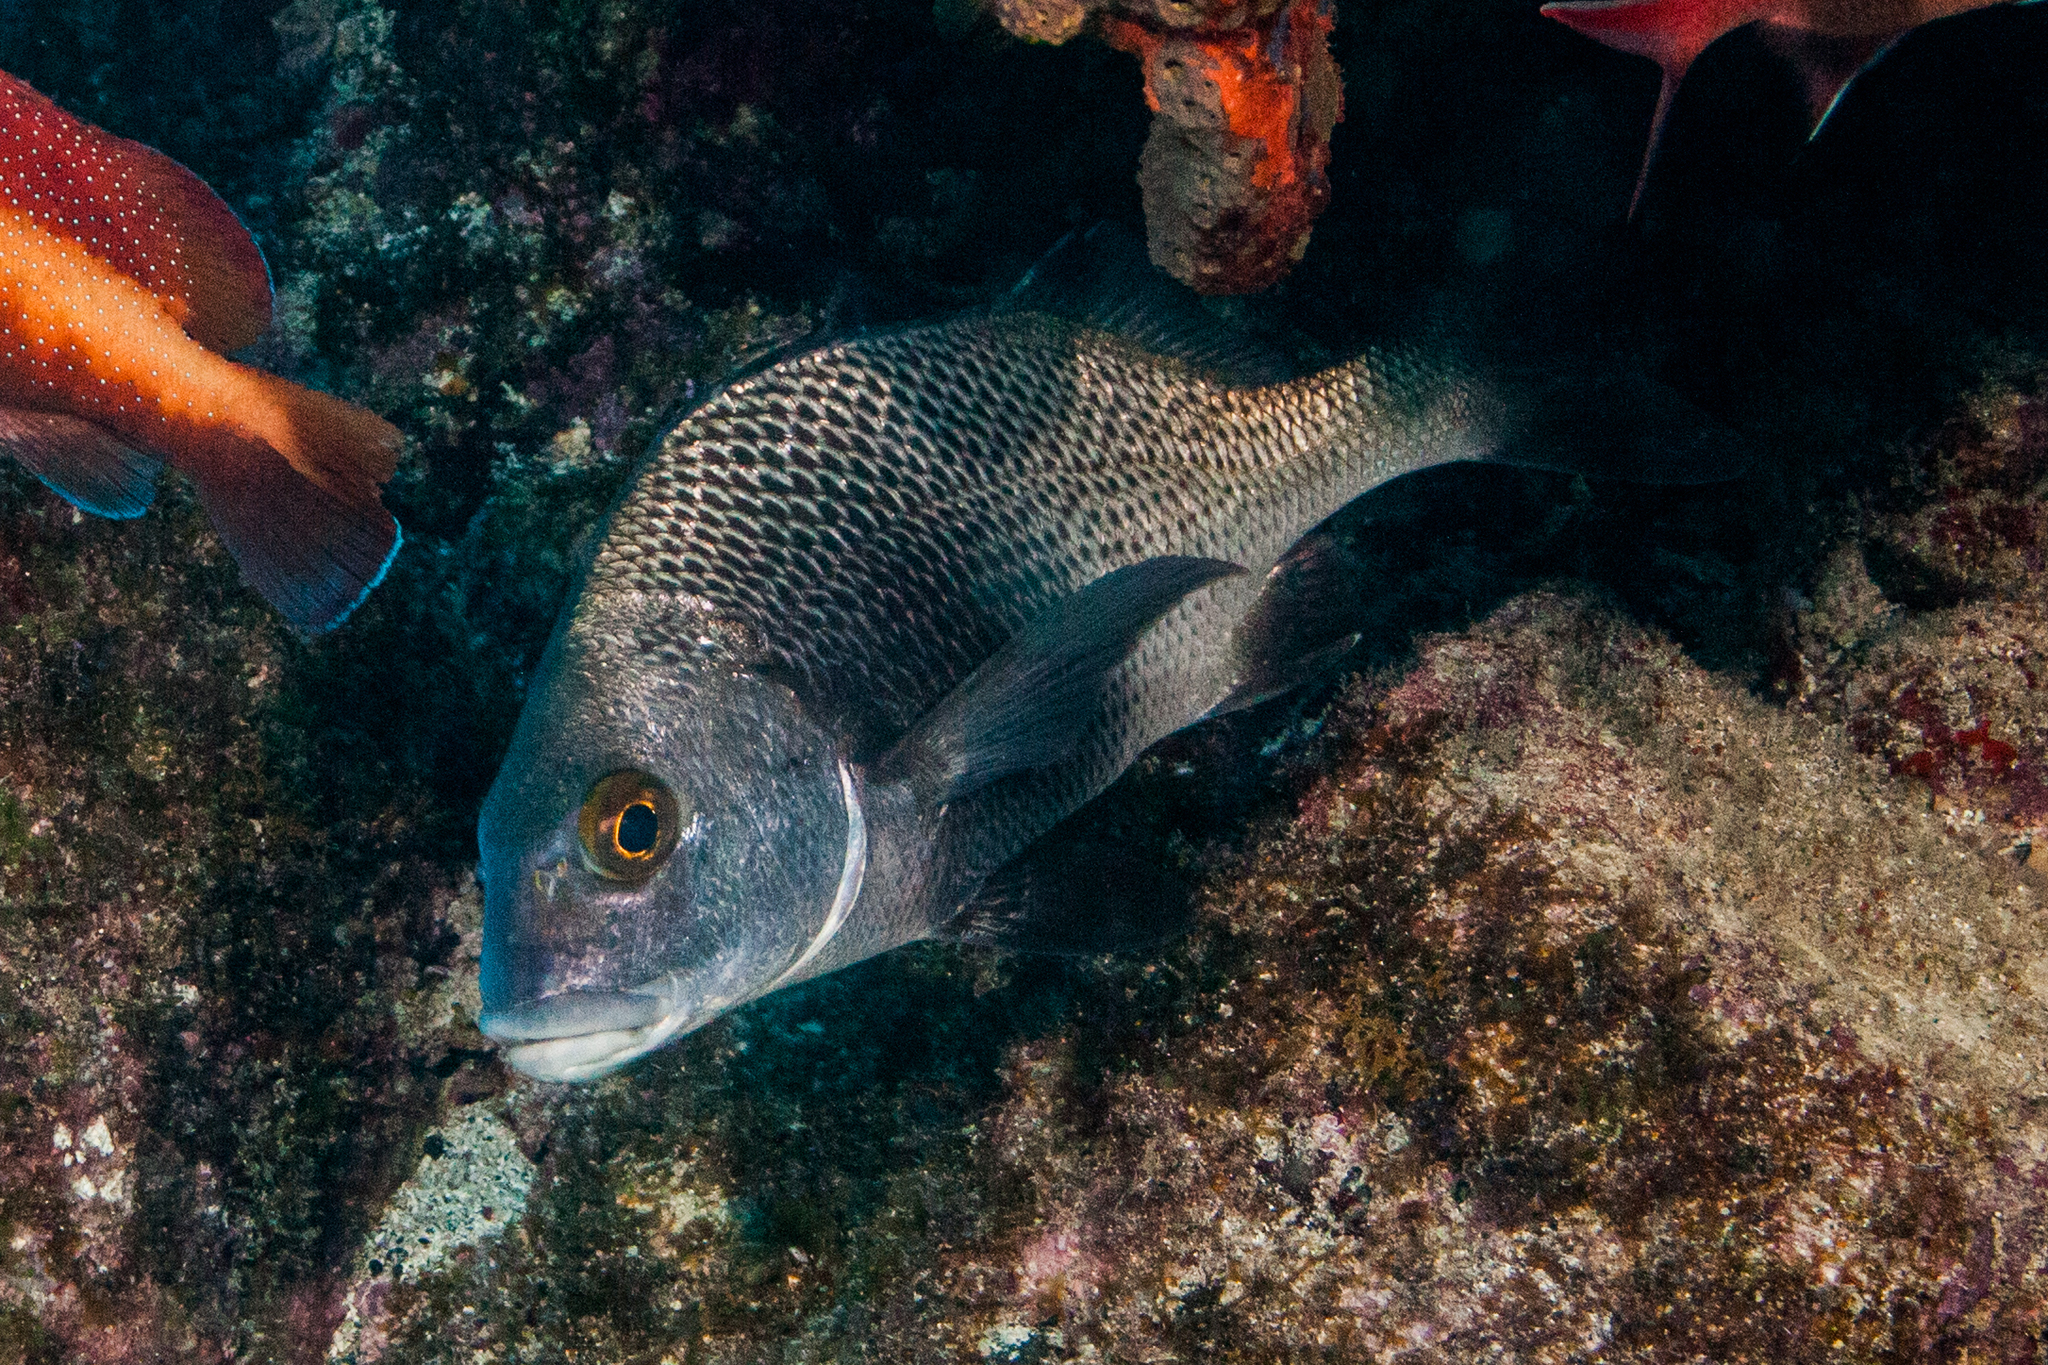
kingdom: Animalia
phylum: Chordata
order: Perciformes
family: Haemulidae
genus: Anisotremus
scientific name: Anisotremus surinamensis
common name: Black margate
